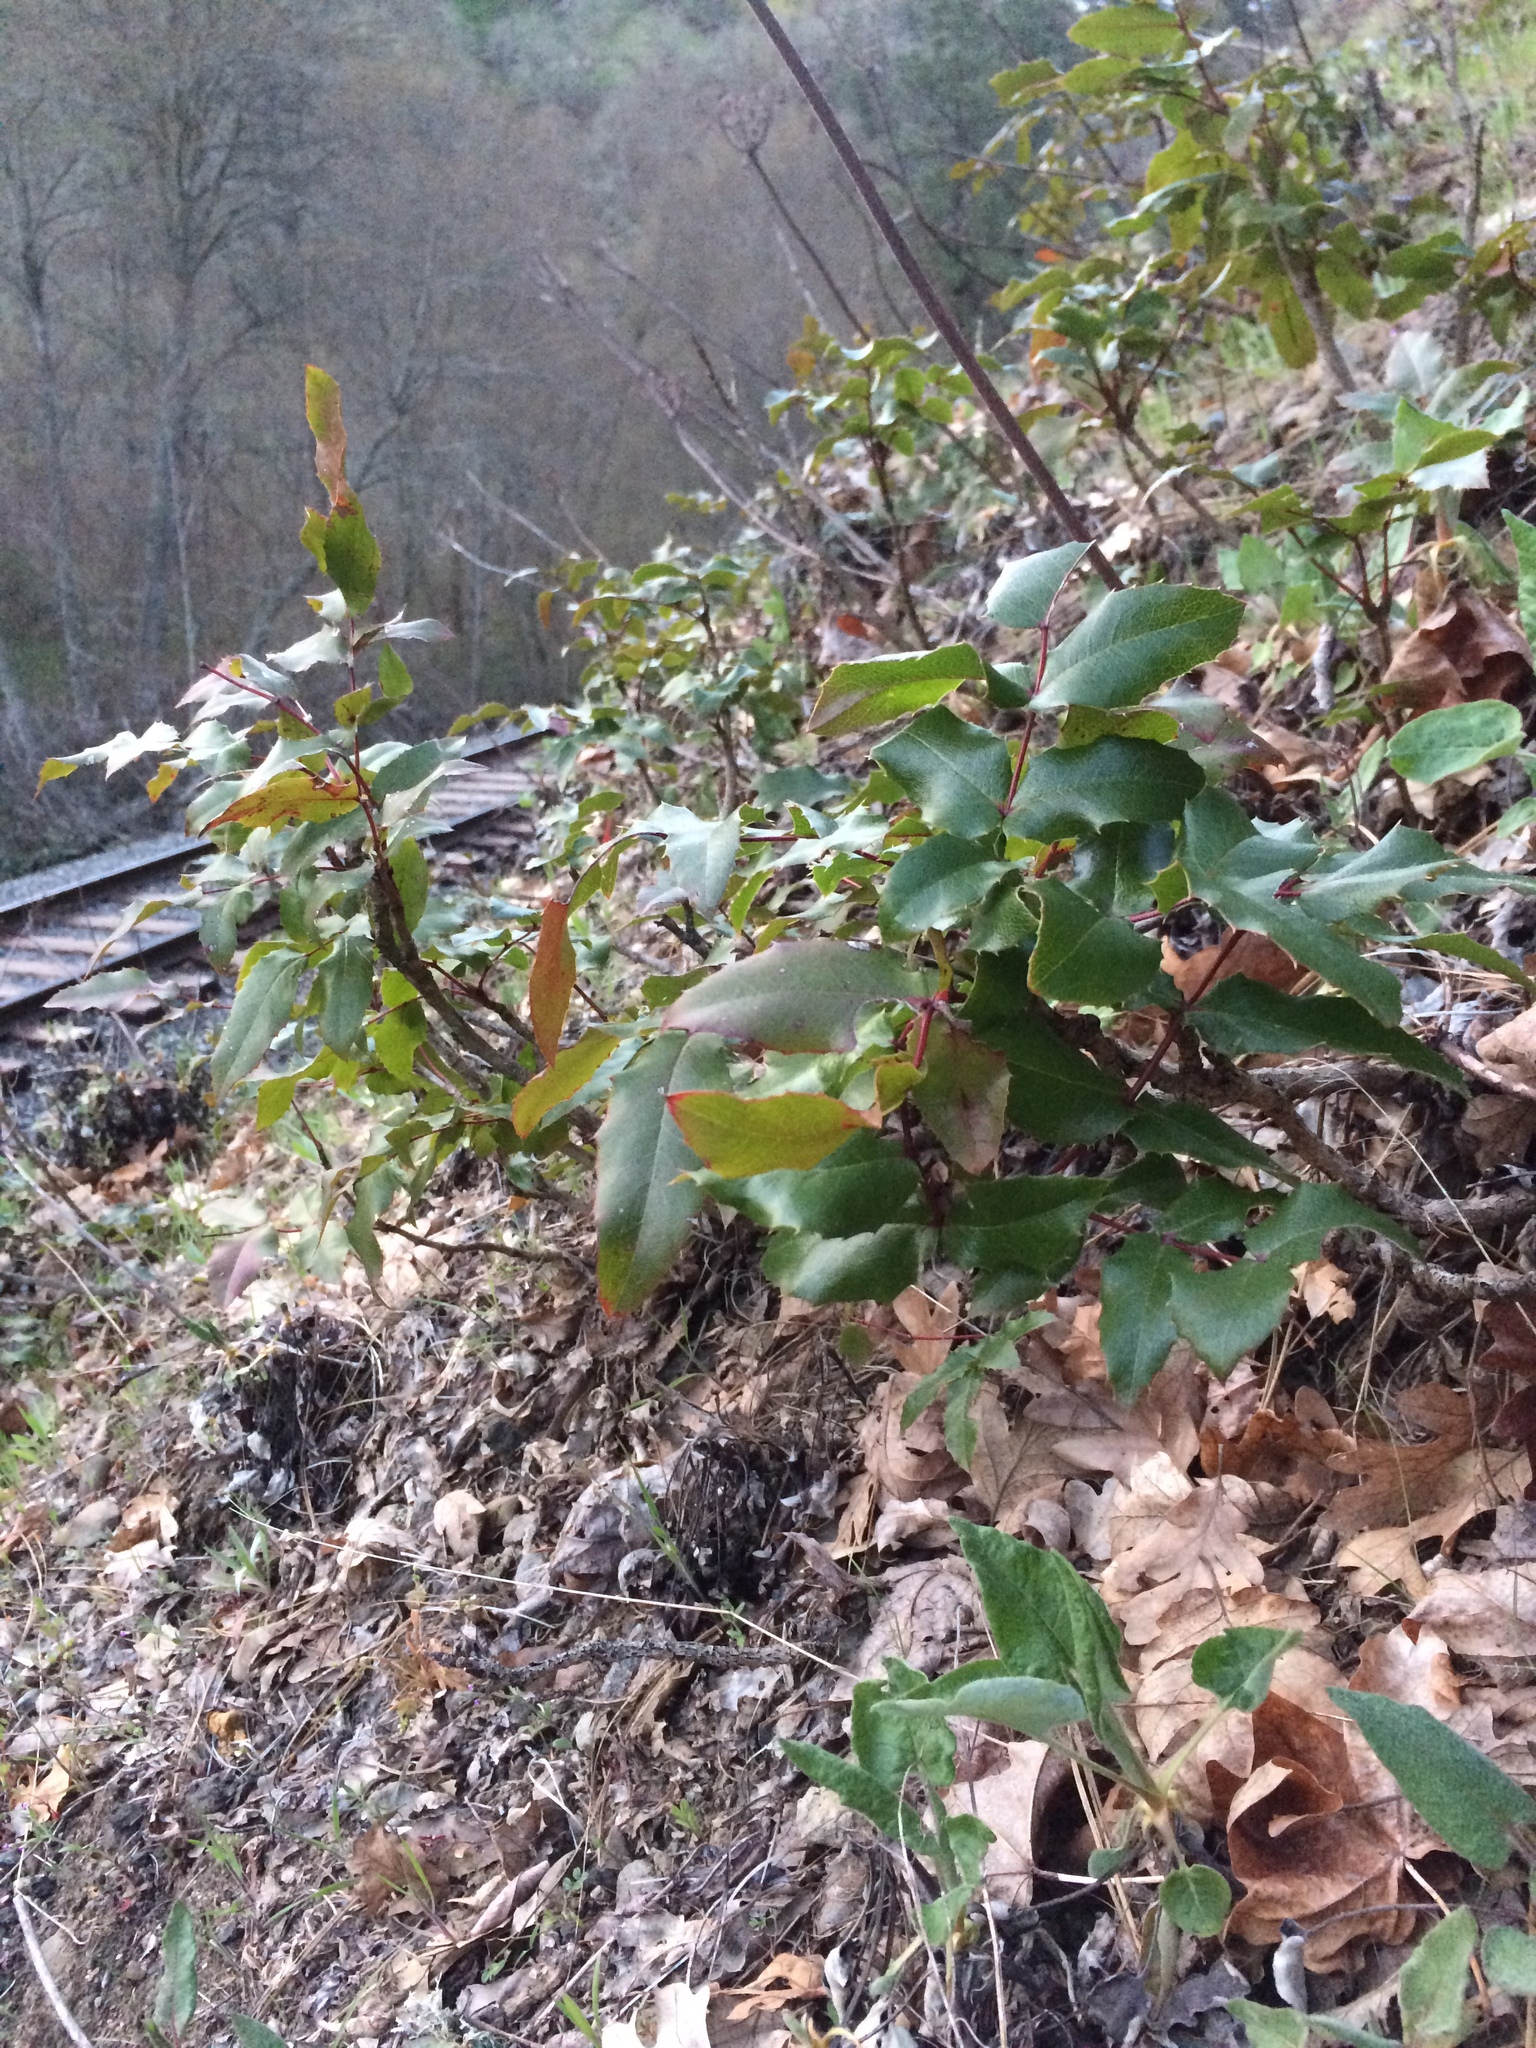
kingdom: Plantae
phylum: Tracheophyta
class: Magnoliopsida
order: Ranunculales
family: Berberidaceae
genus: Mahonia
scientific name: Mahonia aquifolium
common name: Oregon-grape
